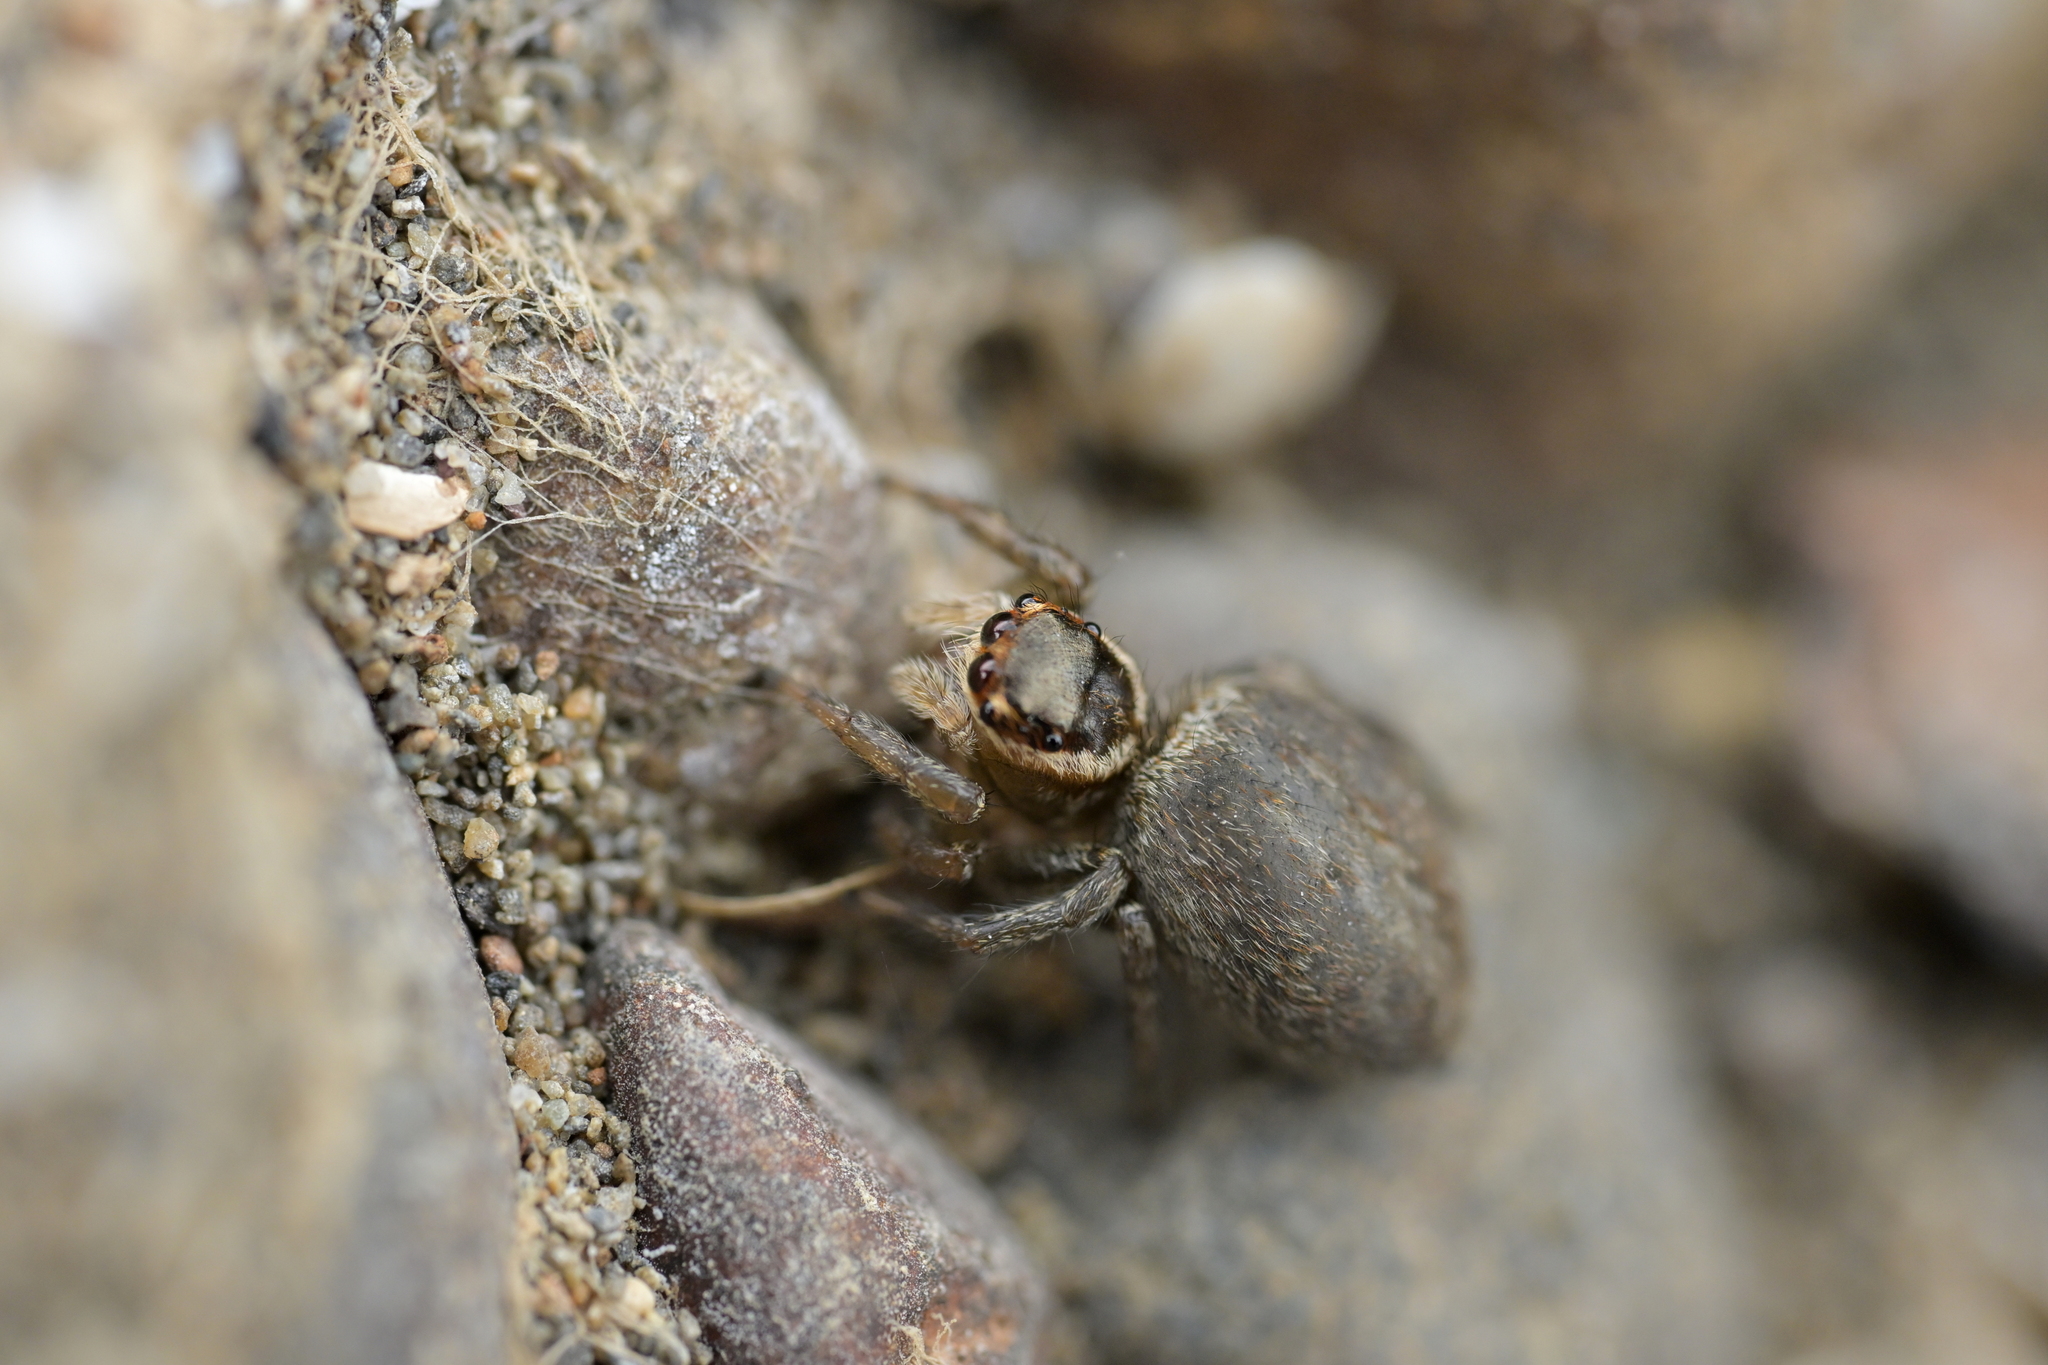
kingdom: Animalia
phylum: Arthropoda
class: Arachnida
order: Araneae
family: Salticidae
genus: Maratus
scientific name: Maratus griseus
